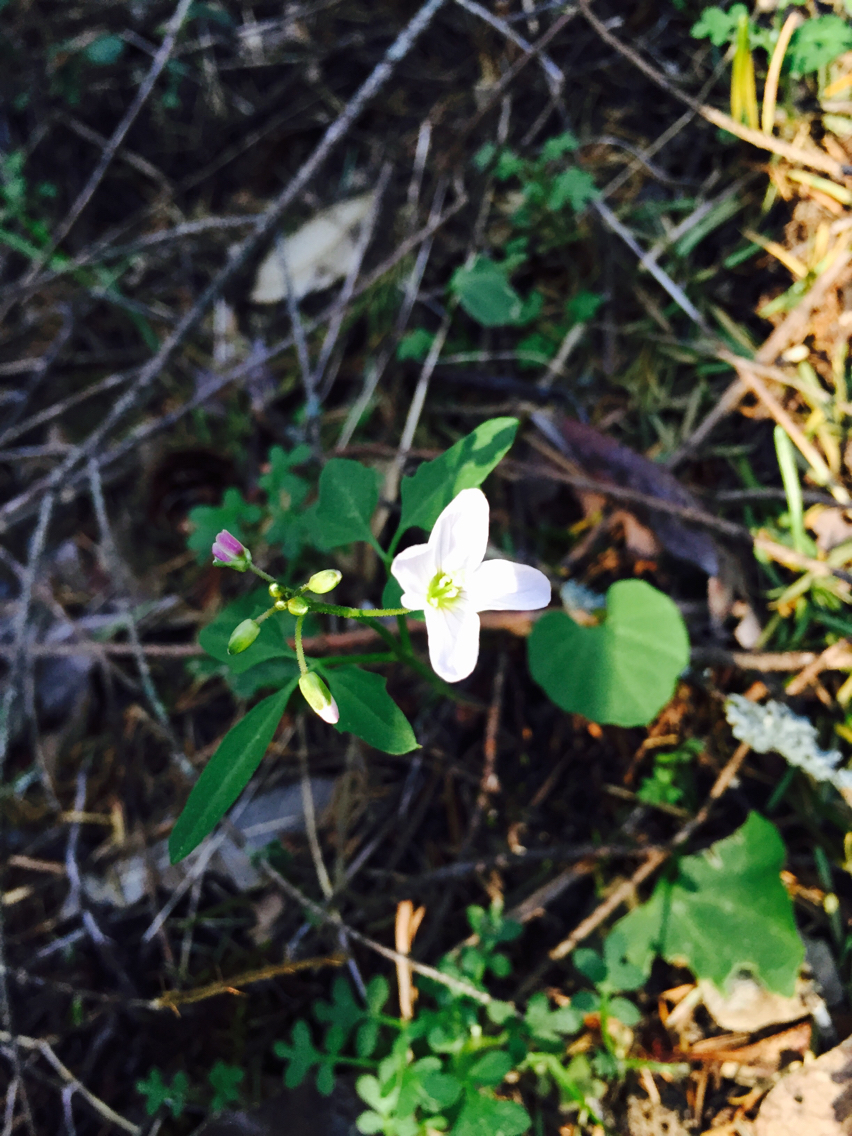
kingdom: Plantae
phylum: Tracheophyta
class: Magnoliopsida
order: Brassicales
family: Brassicaceae
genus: Cardamine
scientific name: Cardamine californica
